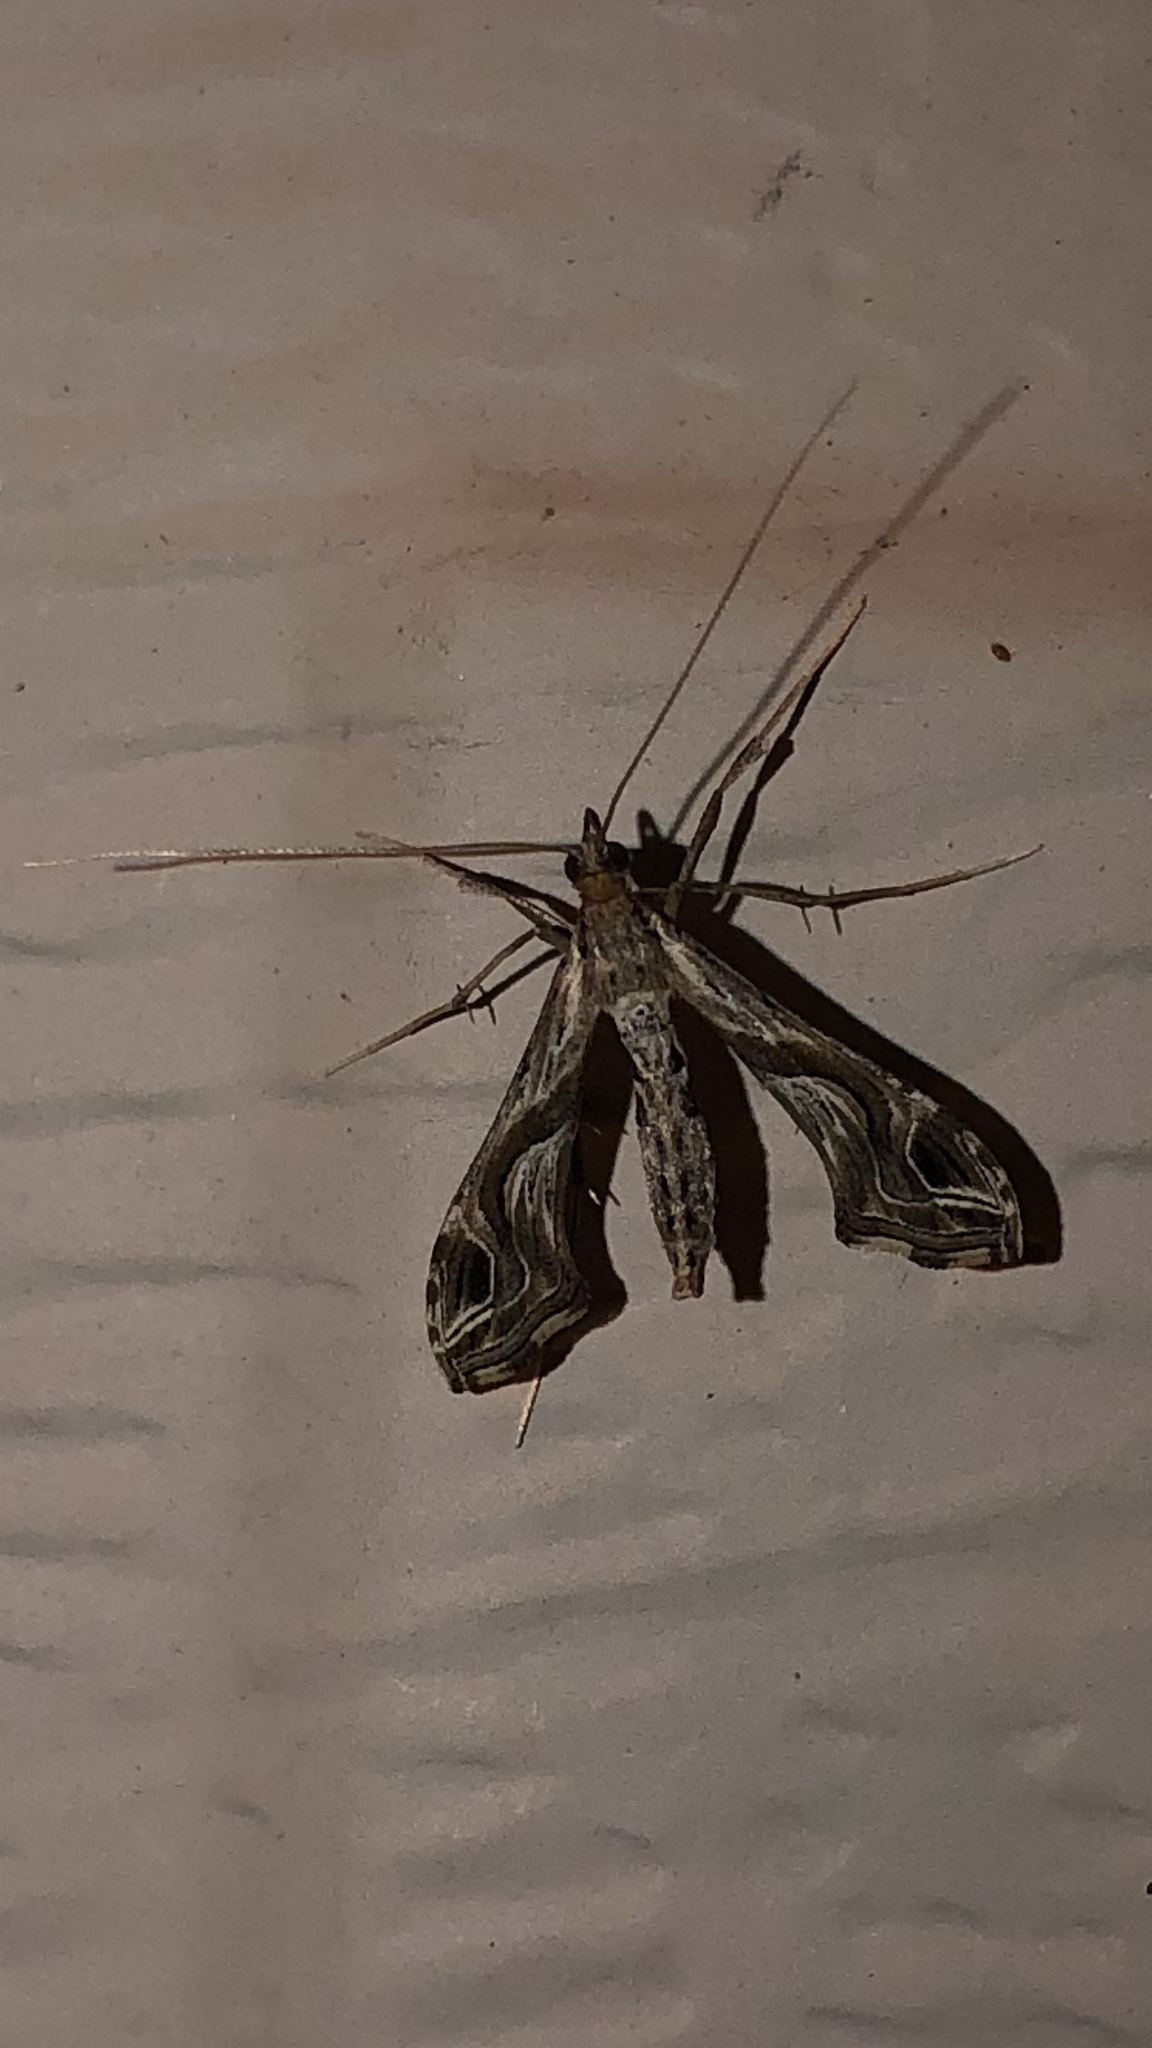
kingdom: Animalia
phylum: Arthropoda
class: Insecta
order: Lepidoptera
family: Crambidae
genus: Lineodes
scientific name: Lineodes integra
